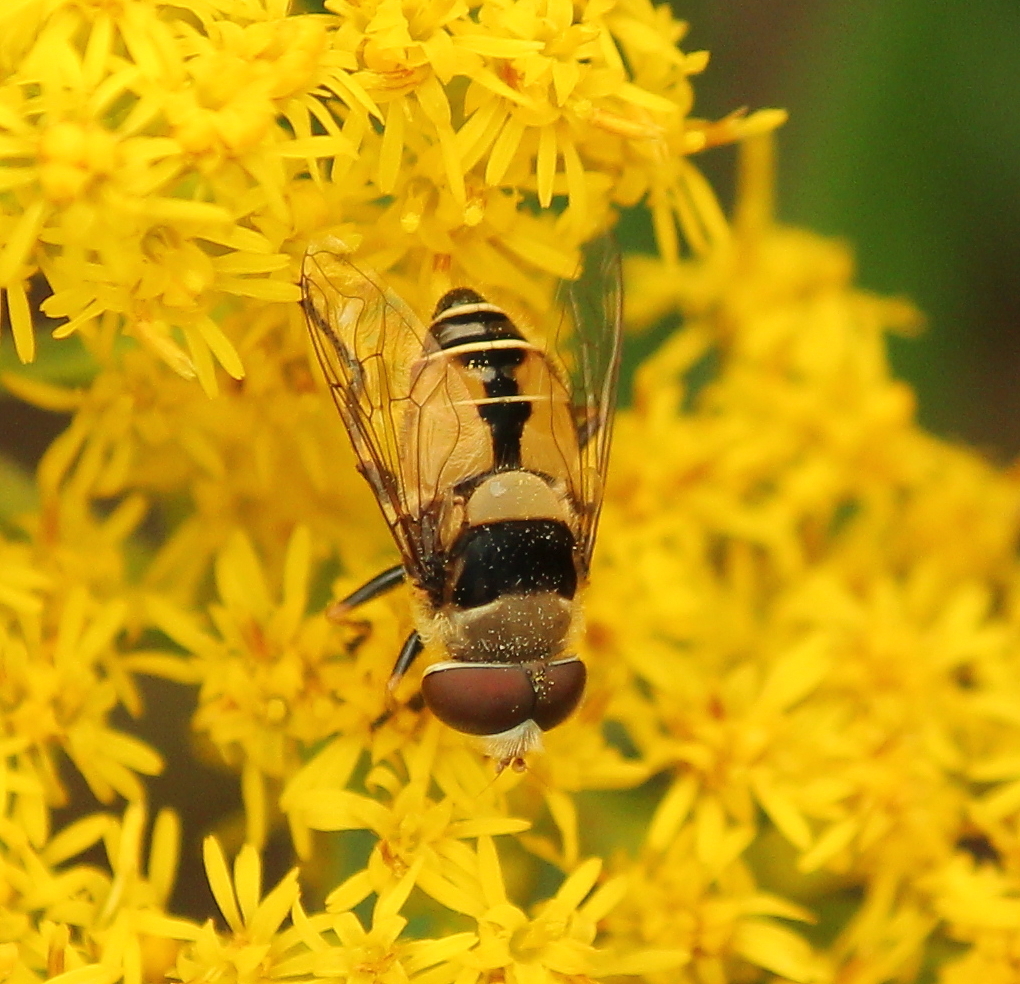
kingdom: Animalia
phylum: Arthropoda
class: Insecta
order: Diptera
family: Syrphidae
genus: Palpada
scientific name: Palpada pusilla
